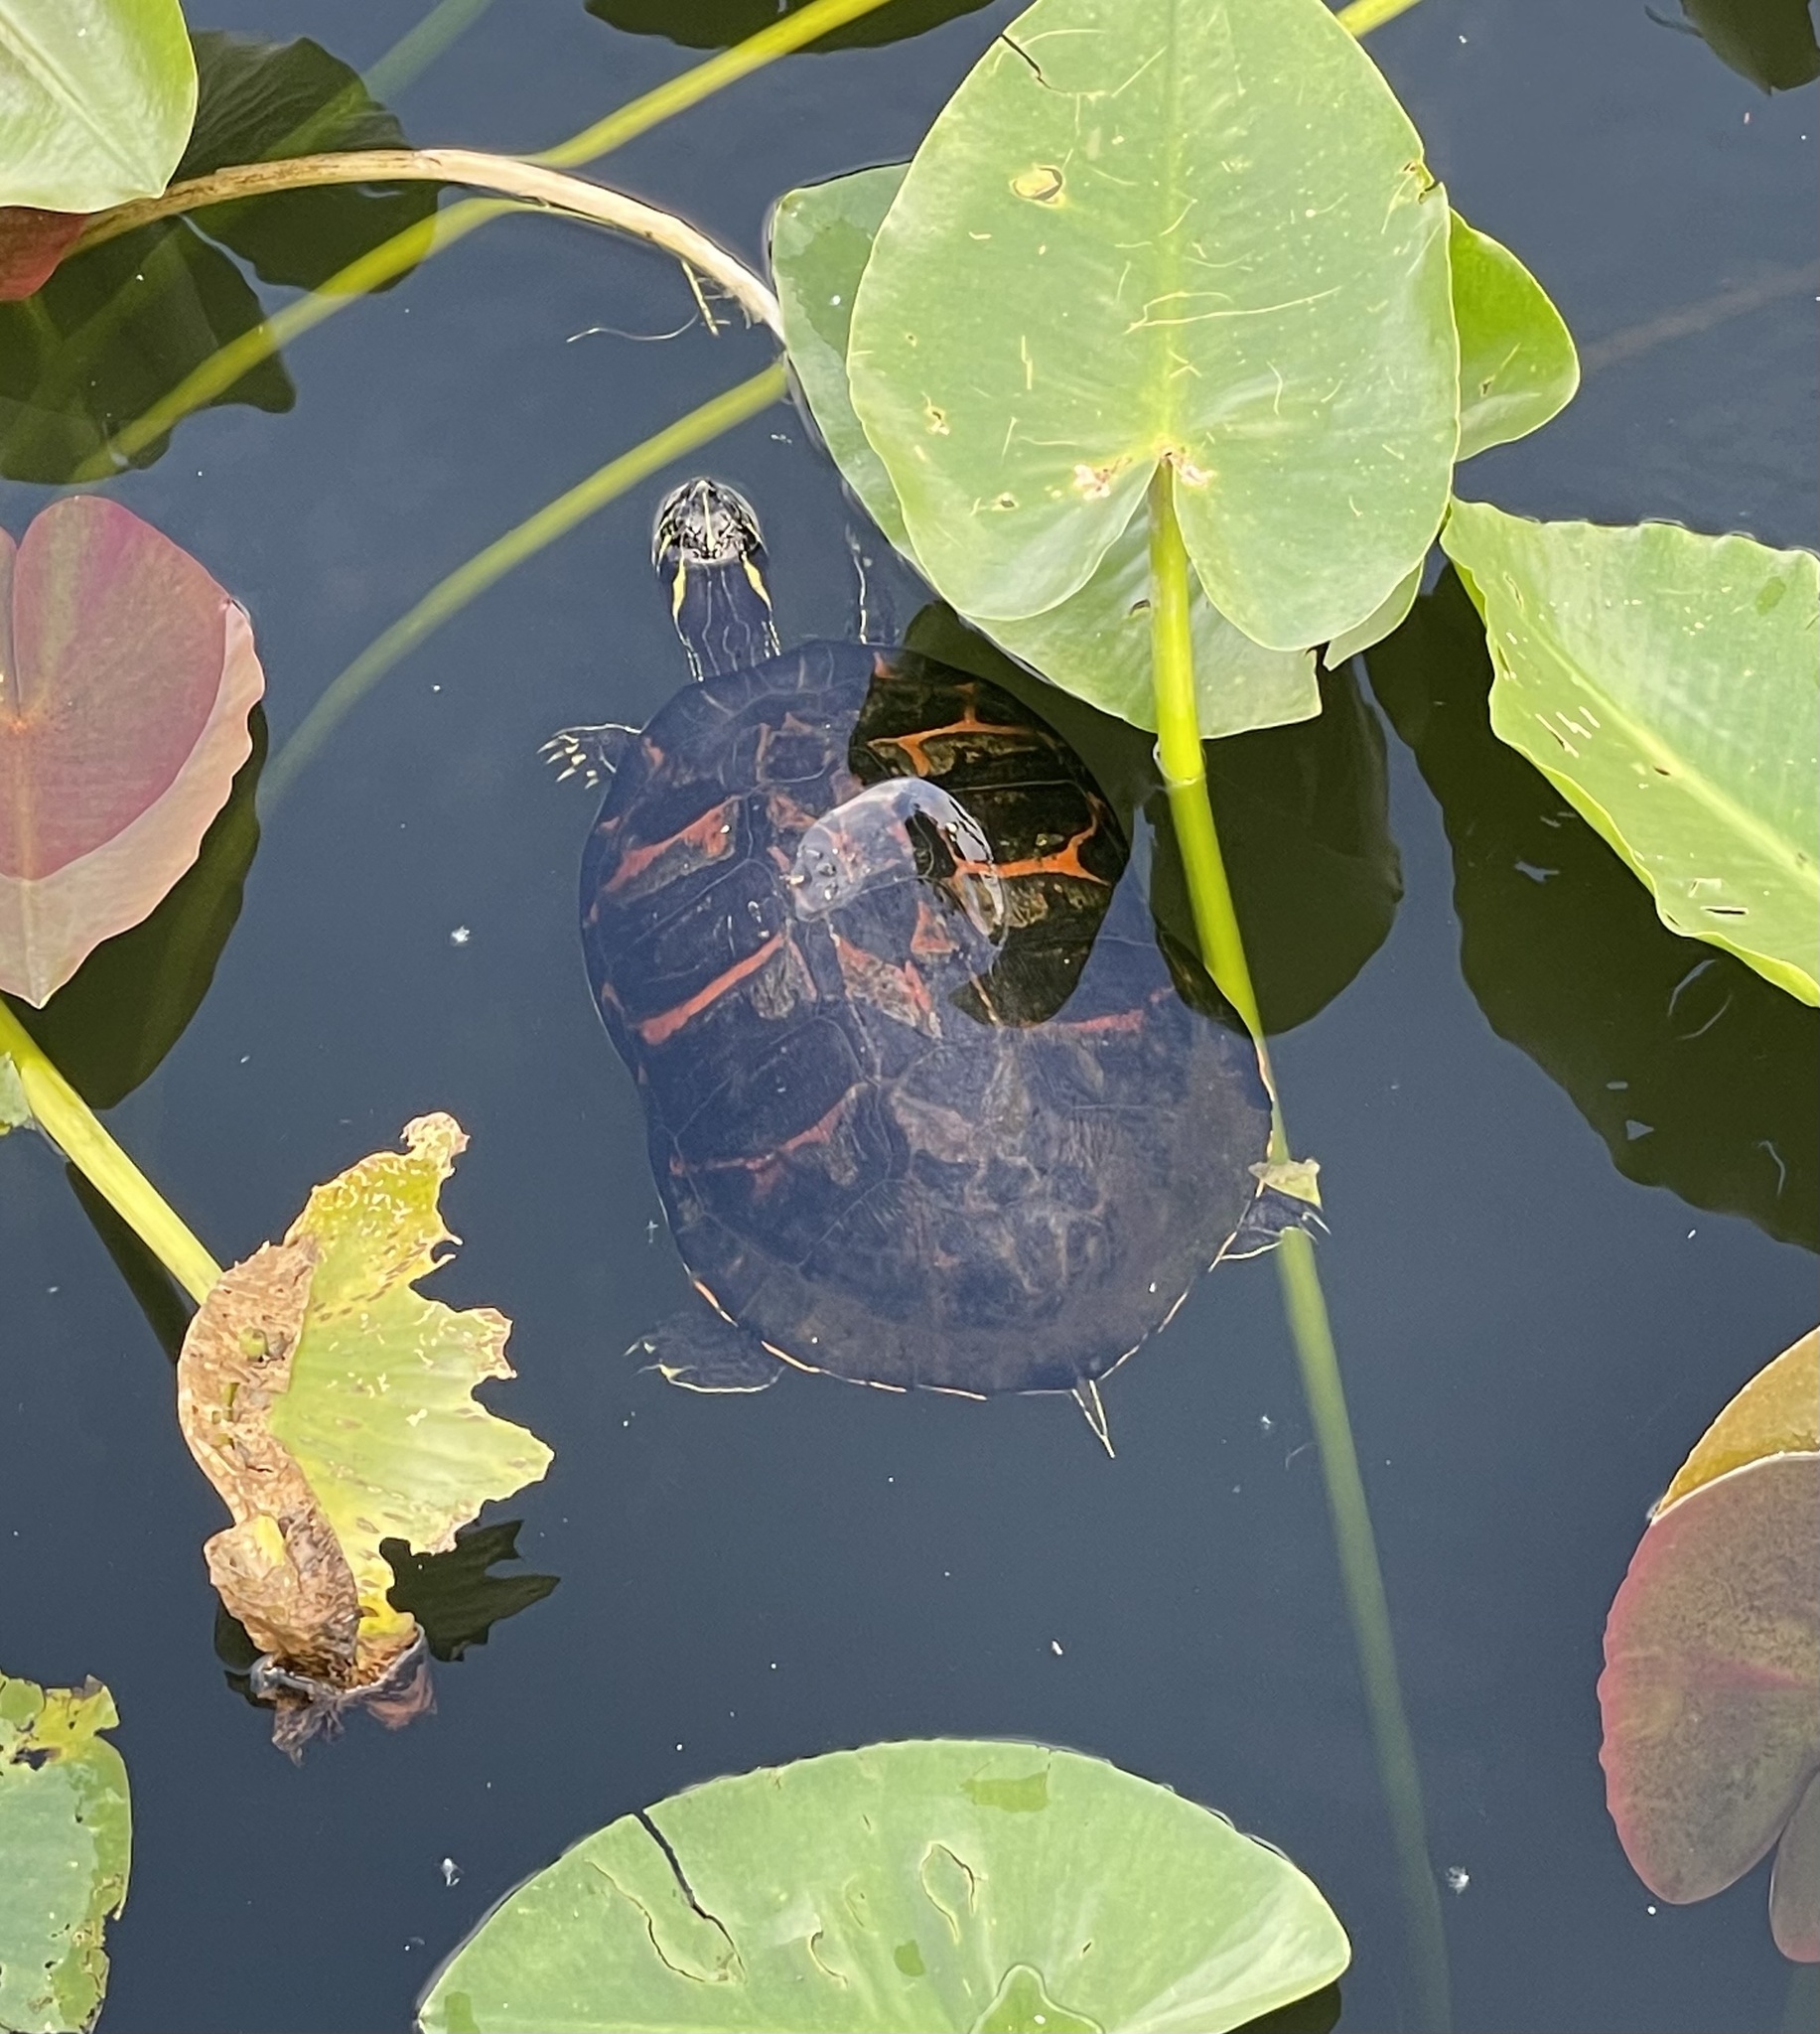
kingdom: Animalia
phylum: Chordata
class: Testudines
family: Emydidae
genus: Pseudemys
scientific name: Pseudemys nelsoni
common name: Florida red-bellied turtle
